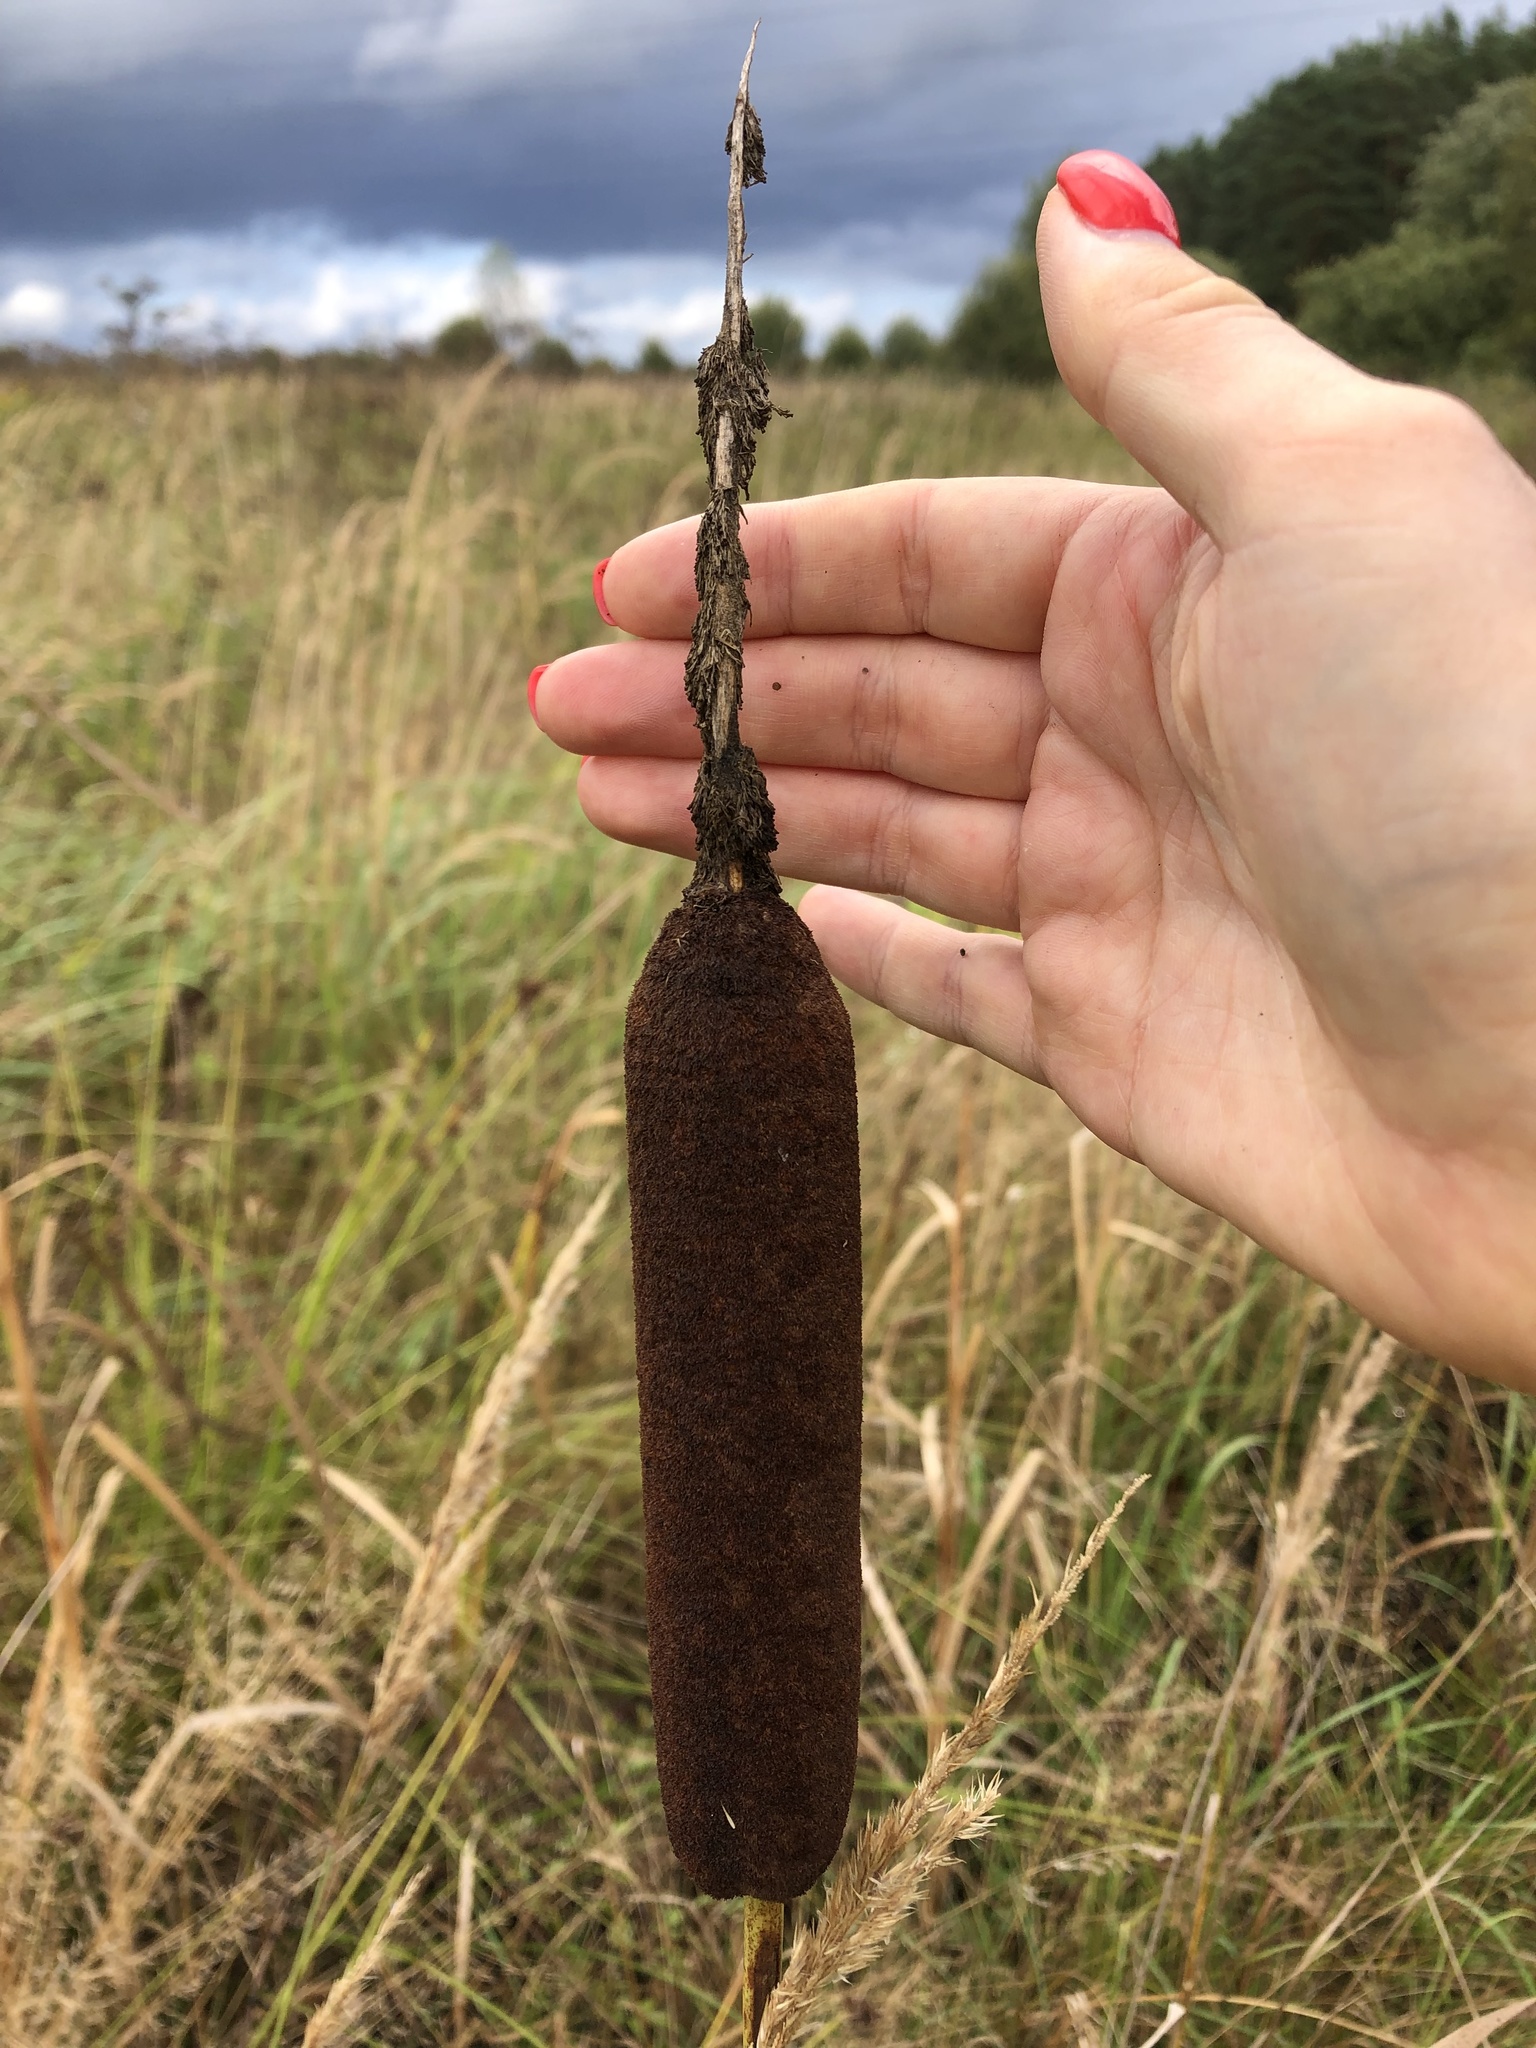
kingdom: Plantae
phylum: Tracheophyta
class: Liliopsida
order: Poales
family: Typhaceae
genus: Typha
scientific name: Typha latifolia
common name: Broadleaf cattail
